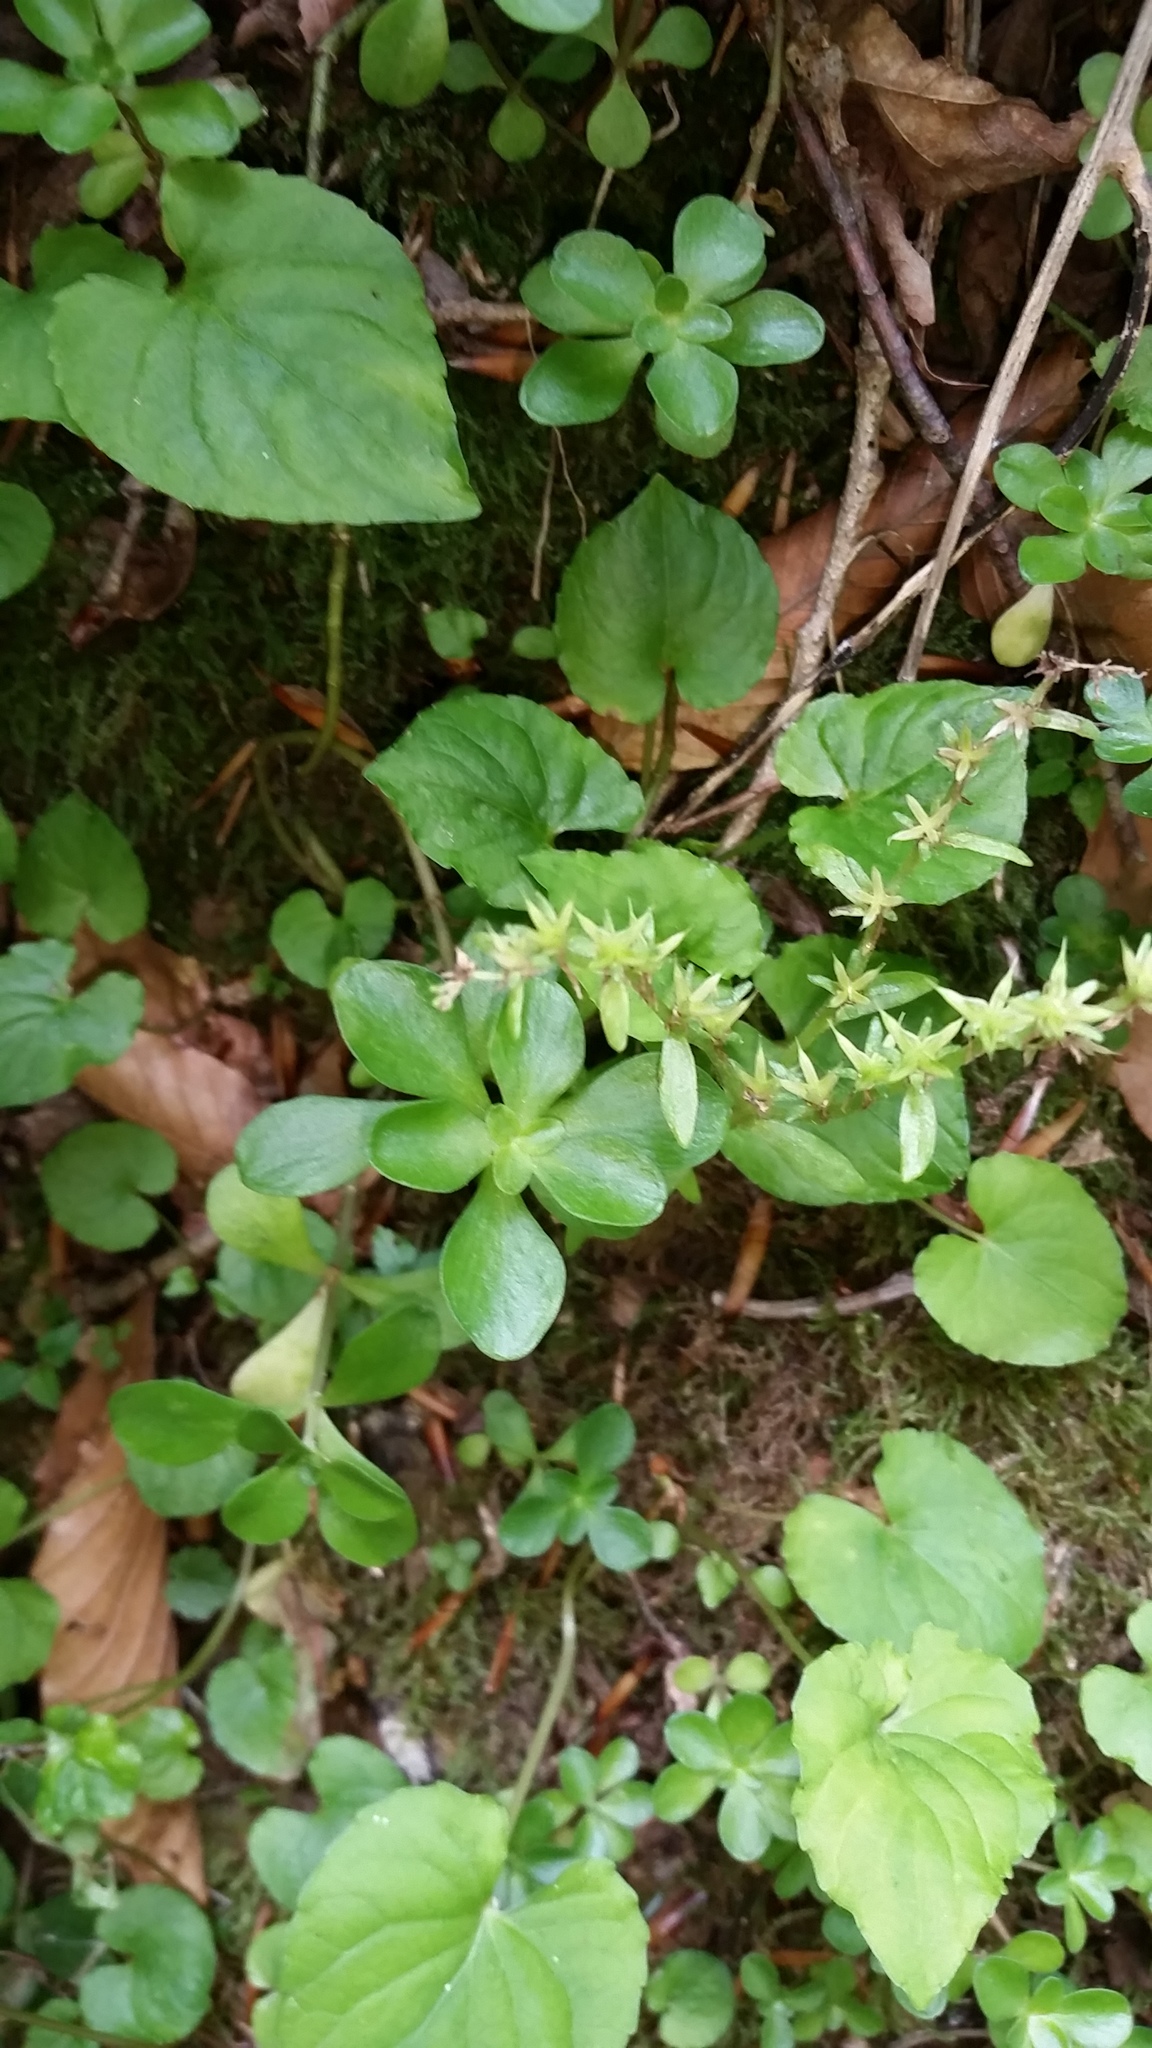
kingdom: Plantae
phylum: Tracheophyta
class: Magnoliopsida
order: Saxifragales
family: Crassulaceae
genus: Sedum
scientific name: Sedum ternatum
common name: Wild stonecrop
